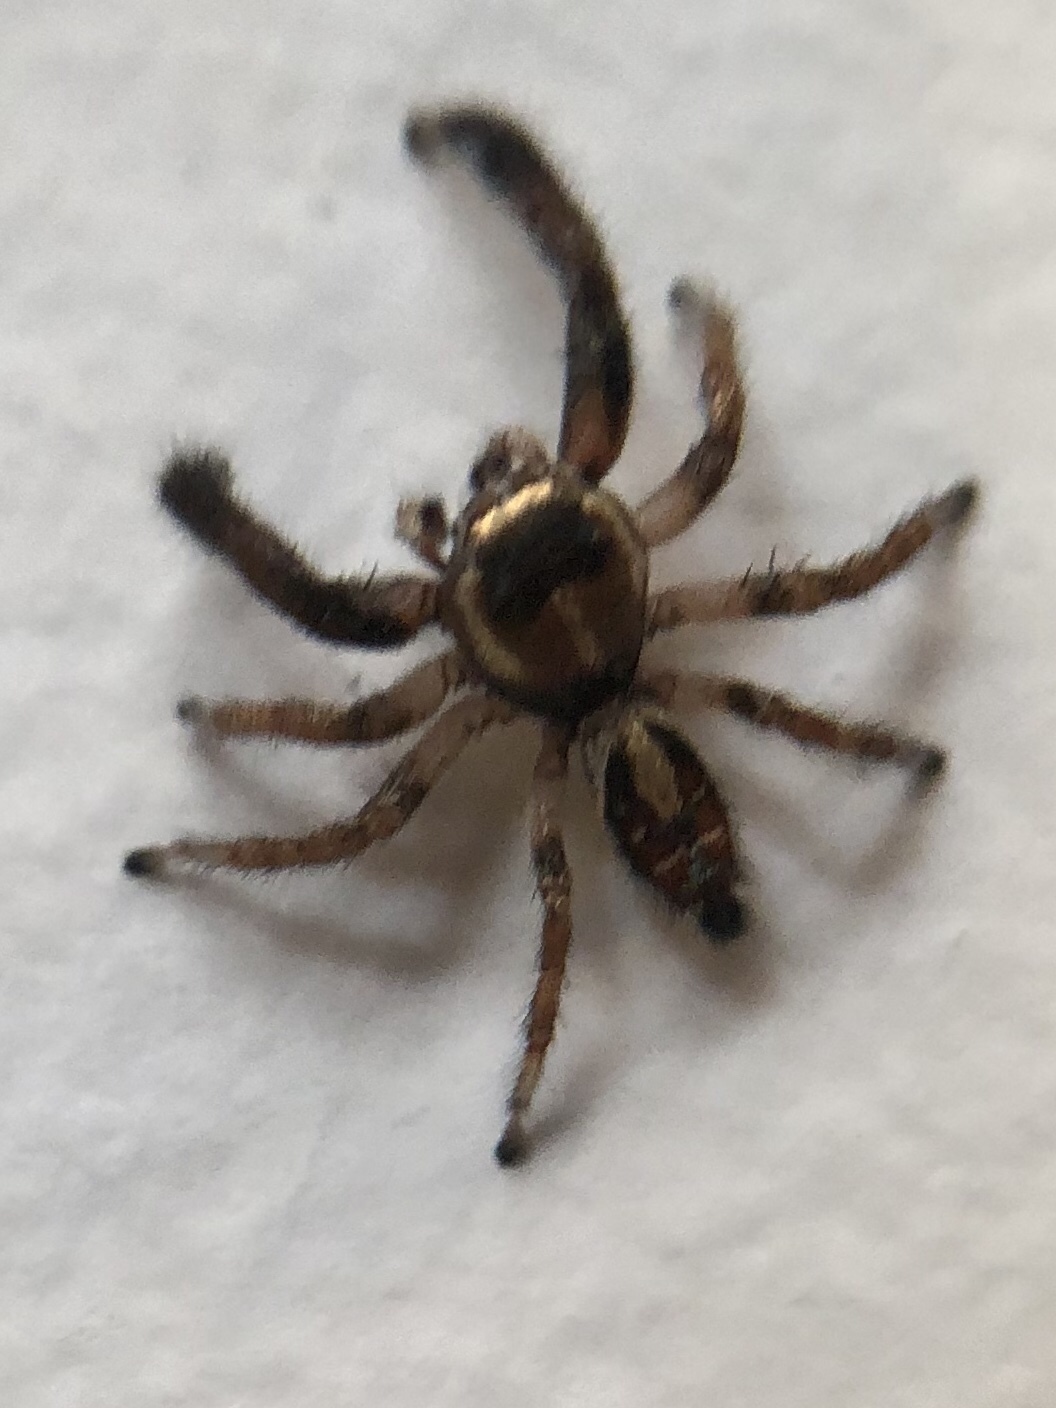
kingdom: Animalia
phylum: Arthropoda
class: Arachnida
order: Araneae
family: Salticidae
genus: Thyene
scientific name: Thyene imperialis
